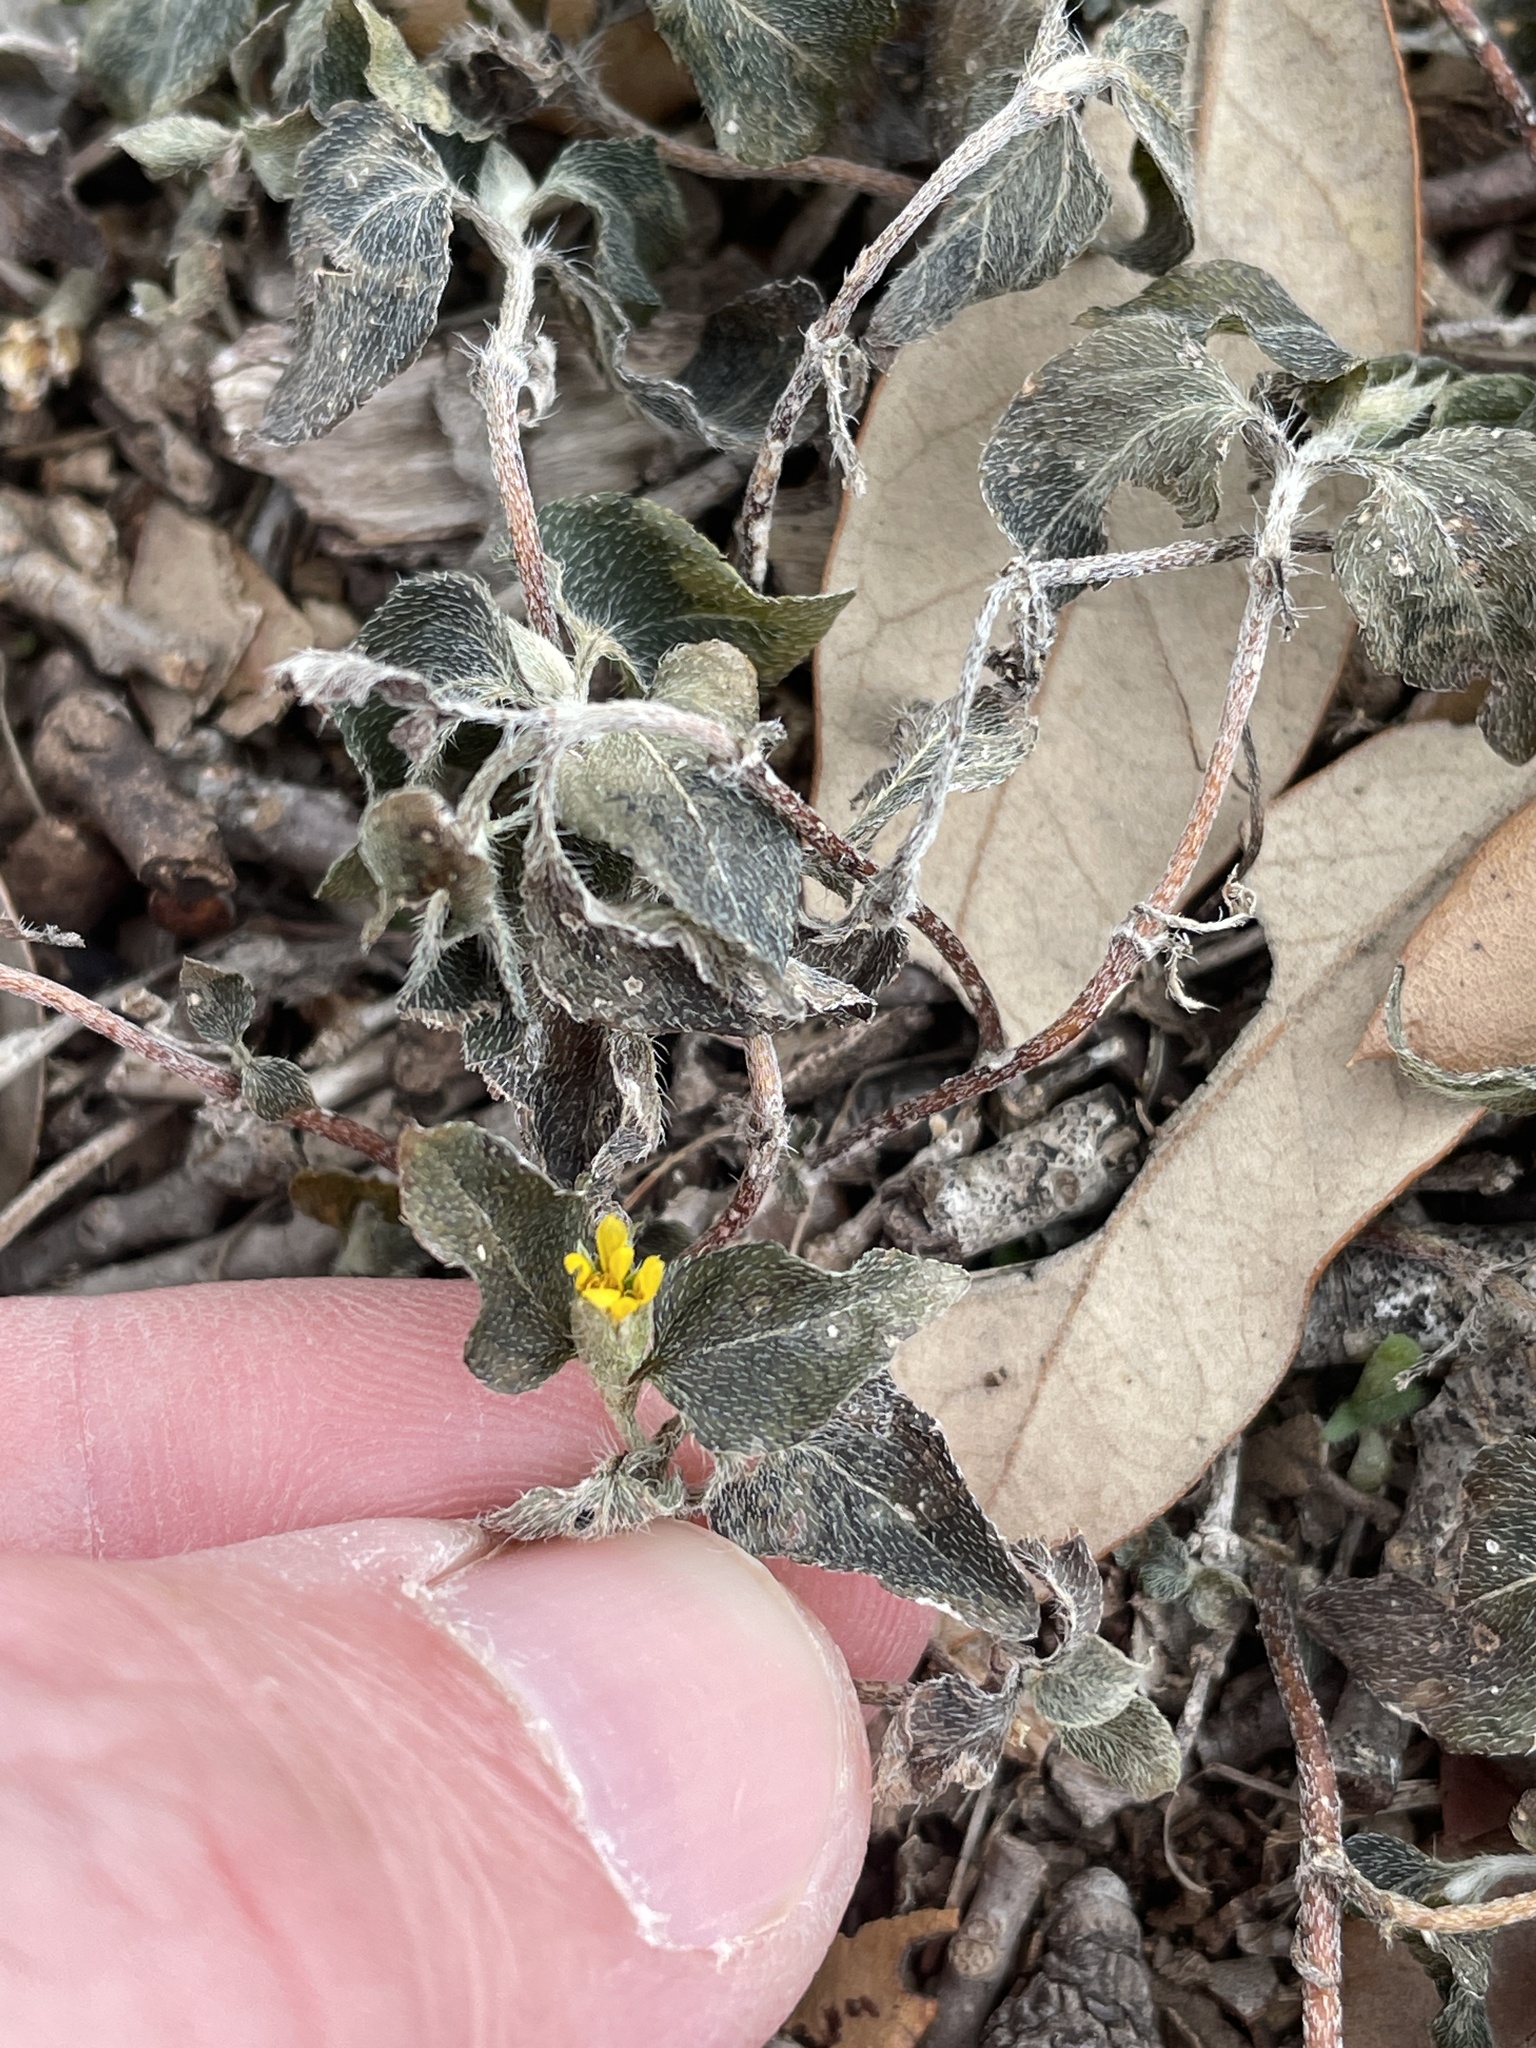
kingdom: Plantae
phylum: Tracheophyta
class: Magnoliopsida
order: Asterales
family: Asteraceae
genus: Calyptocarpus
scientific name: Calyptocarpus vialis
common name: Straggler daisy
